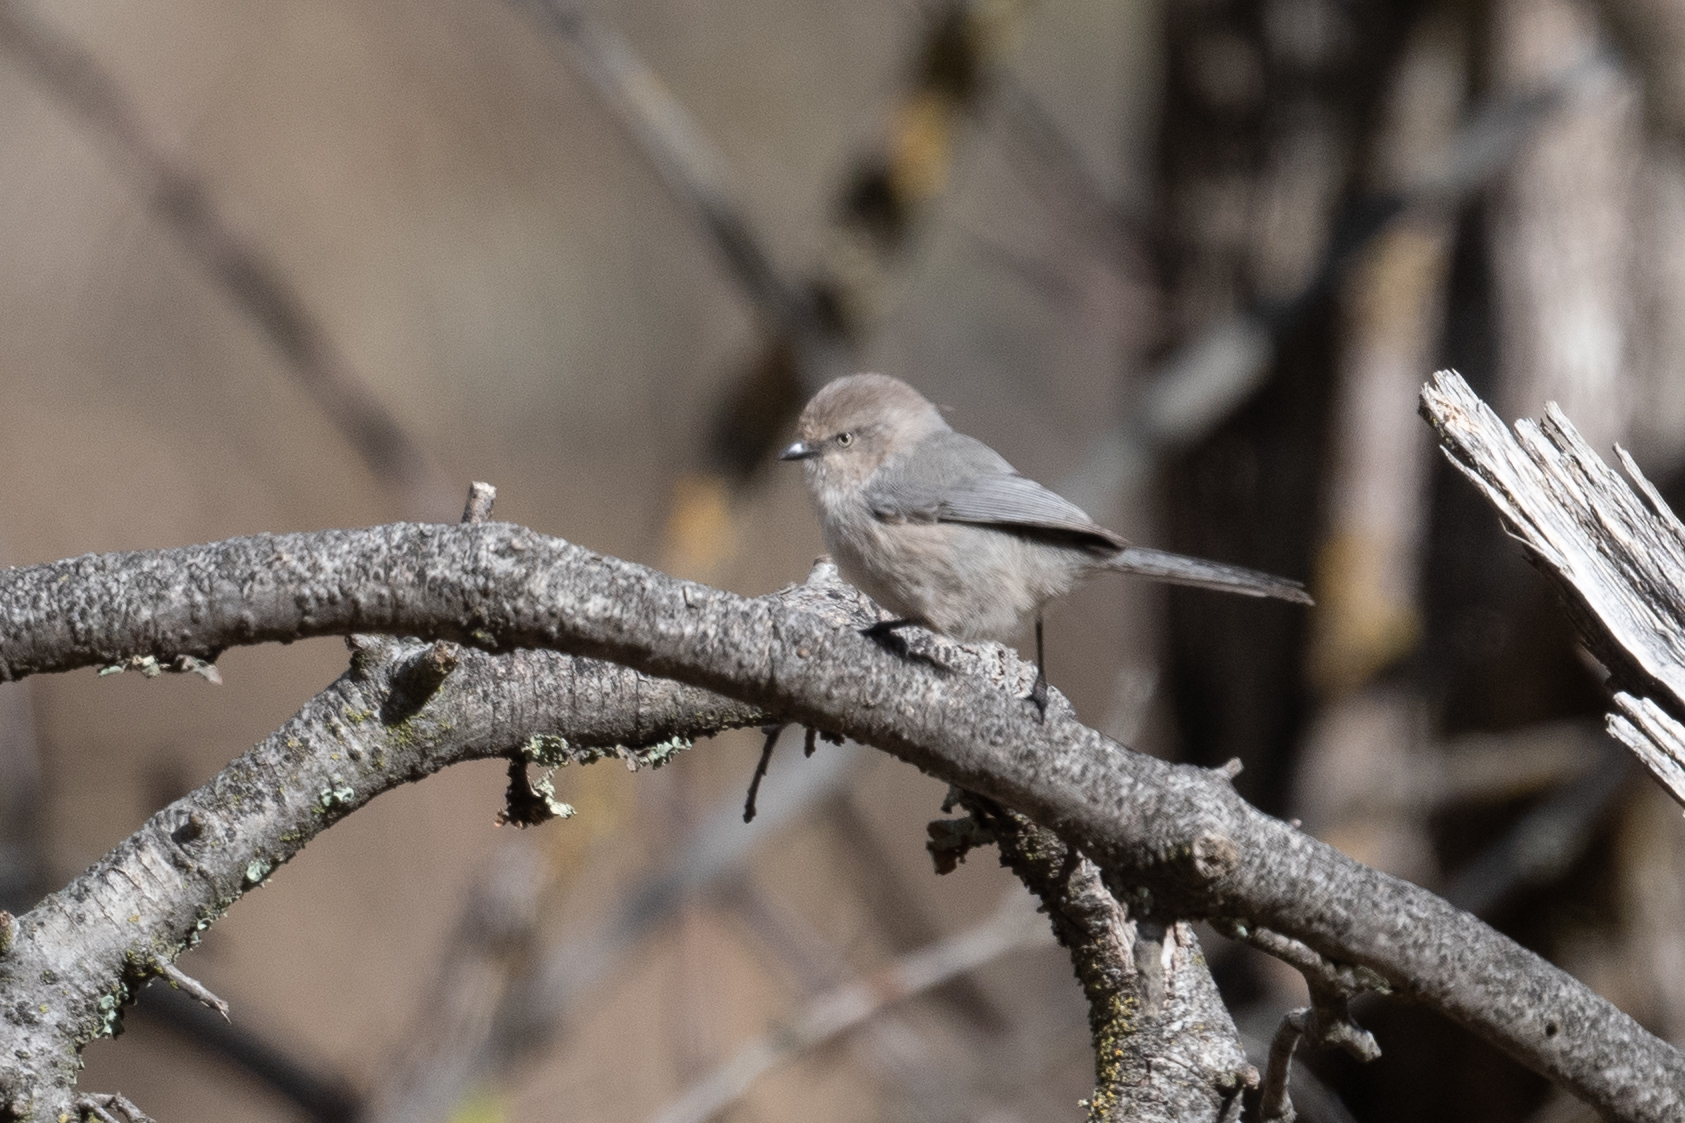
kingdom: Animalia
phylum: Chordata
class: Aves
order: Passeriformes
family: Aegithalidae
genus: Psaltriparus
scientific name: Psaltriparus minimus
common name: American bushtit
